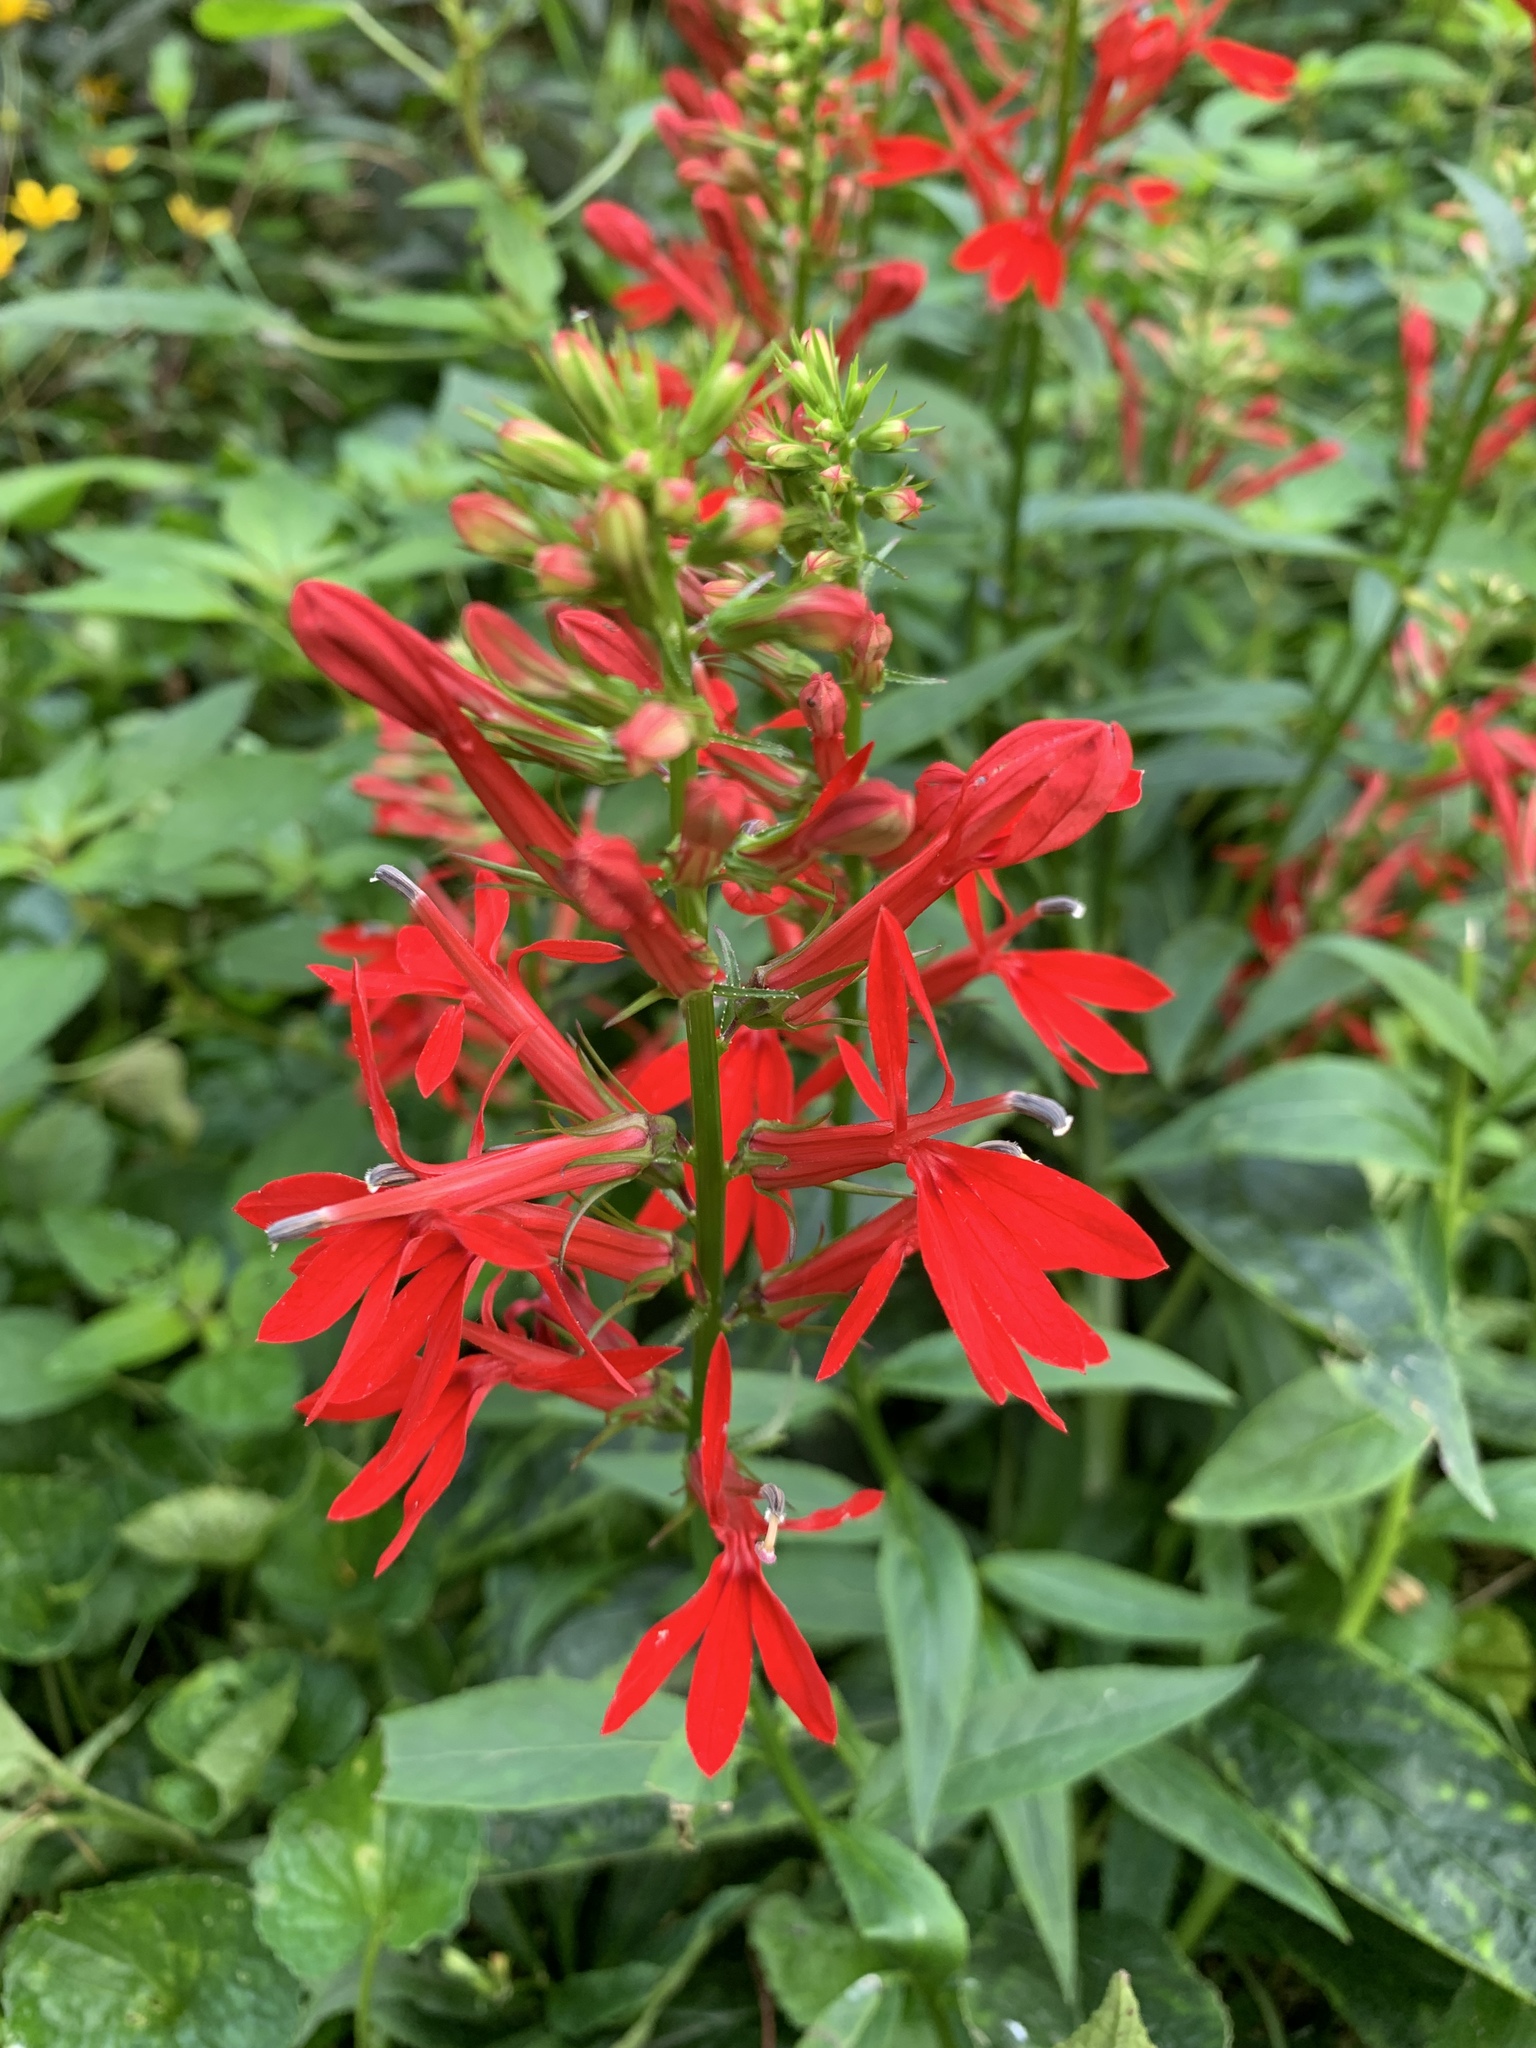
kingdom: Plantae
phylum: Tracheophyta
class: Magnoliopsida
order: Asterales
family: Campanulaceae
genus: Lobelia
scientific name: Lobelia cardinalis
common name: Cardinal flower
